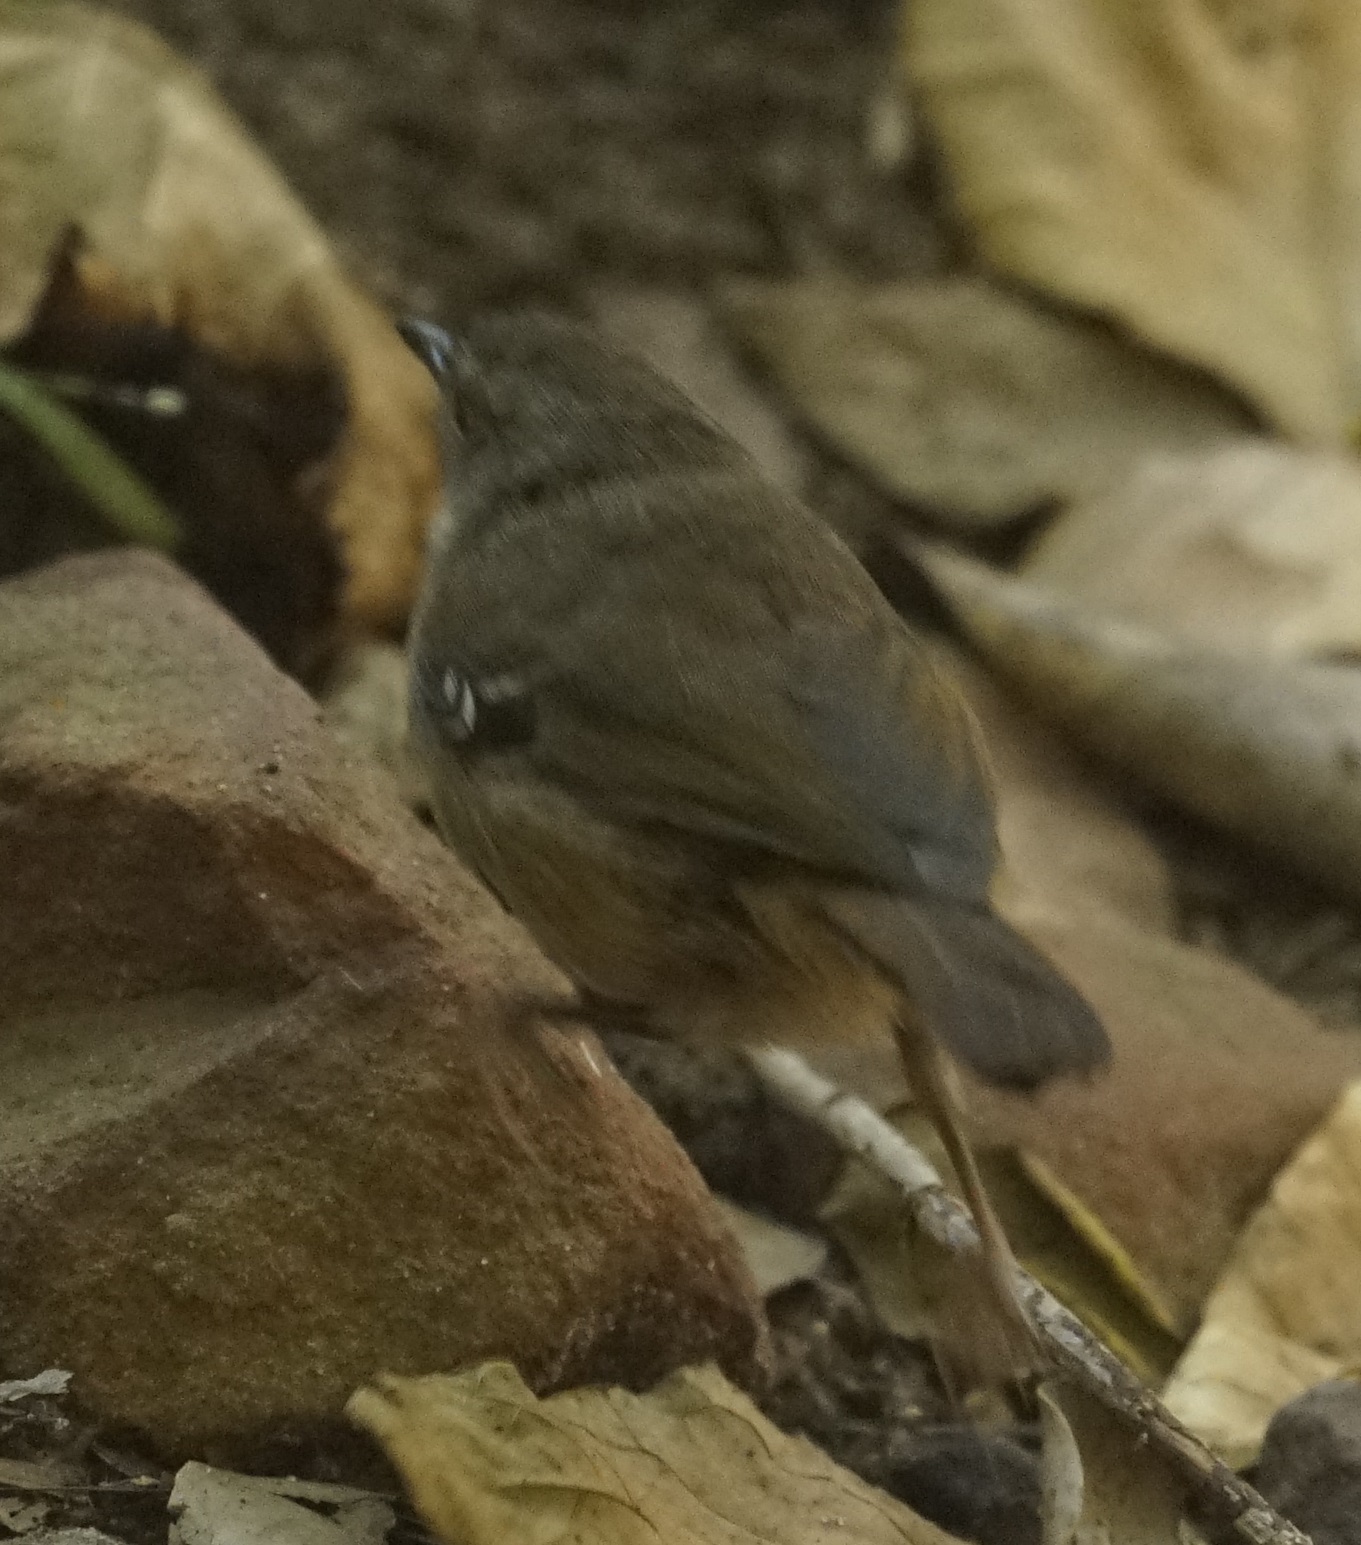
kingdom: Animalia
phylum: Chordata
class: Aves
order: Passeriformes
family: Acanthizidae
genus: Sericornis
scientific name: Sericornis frontalis
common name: White-browed scrubwren
